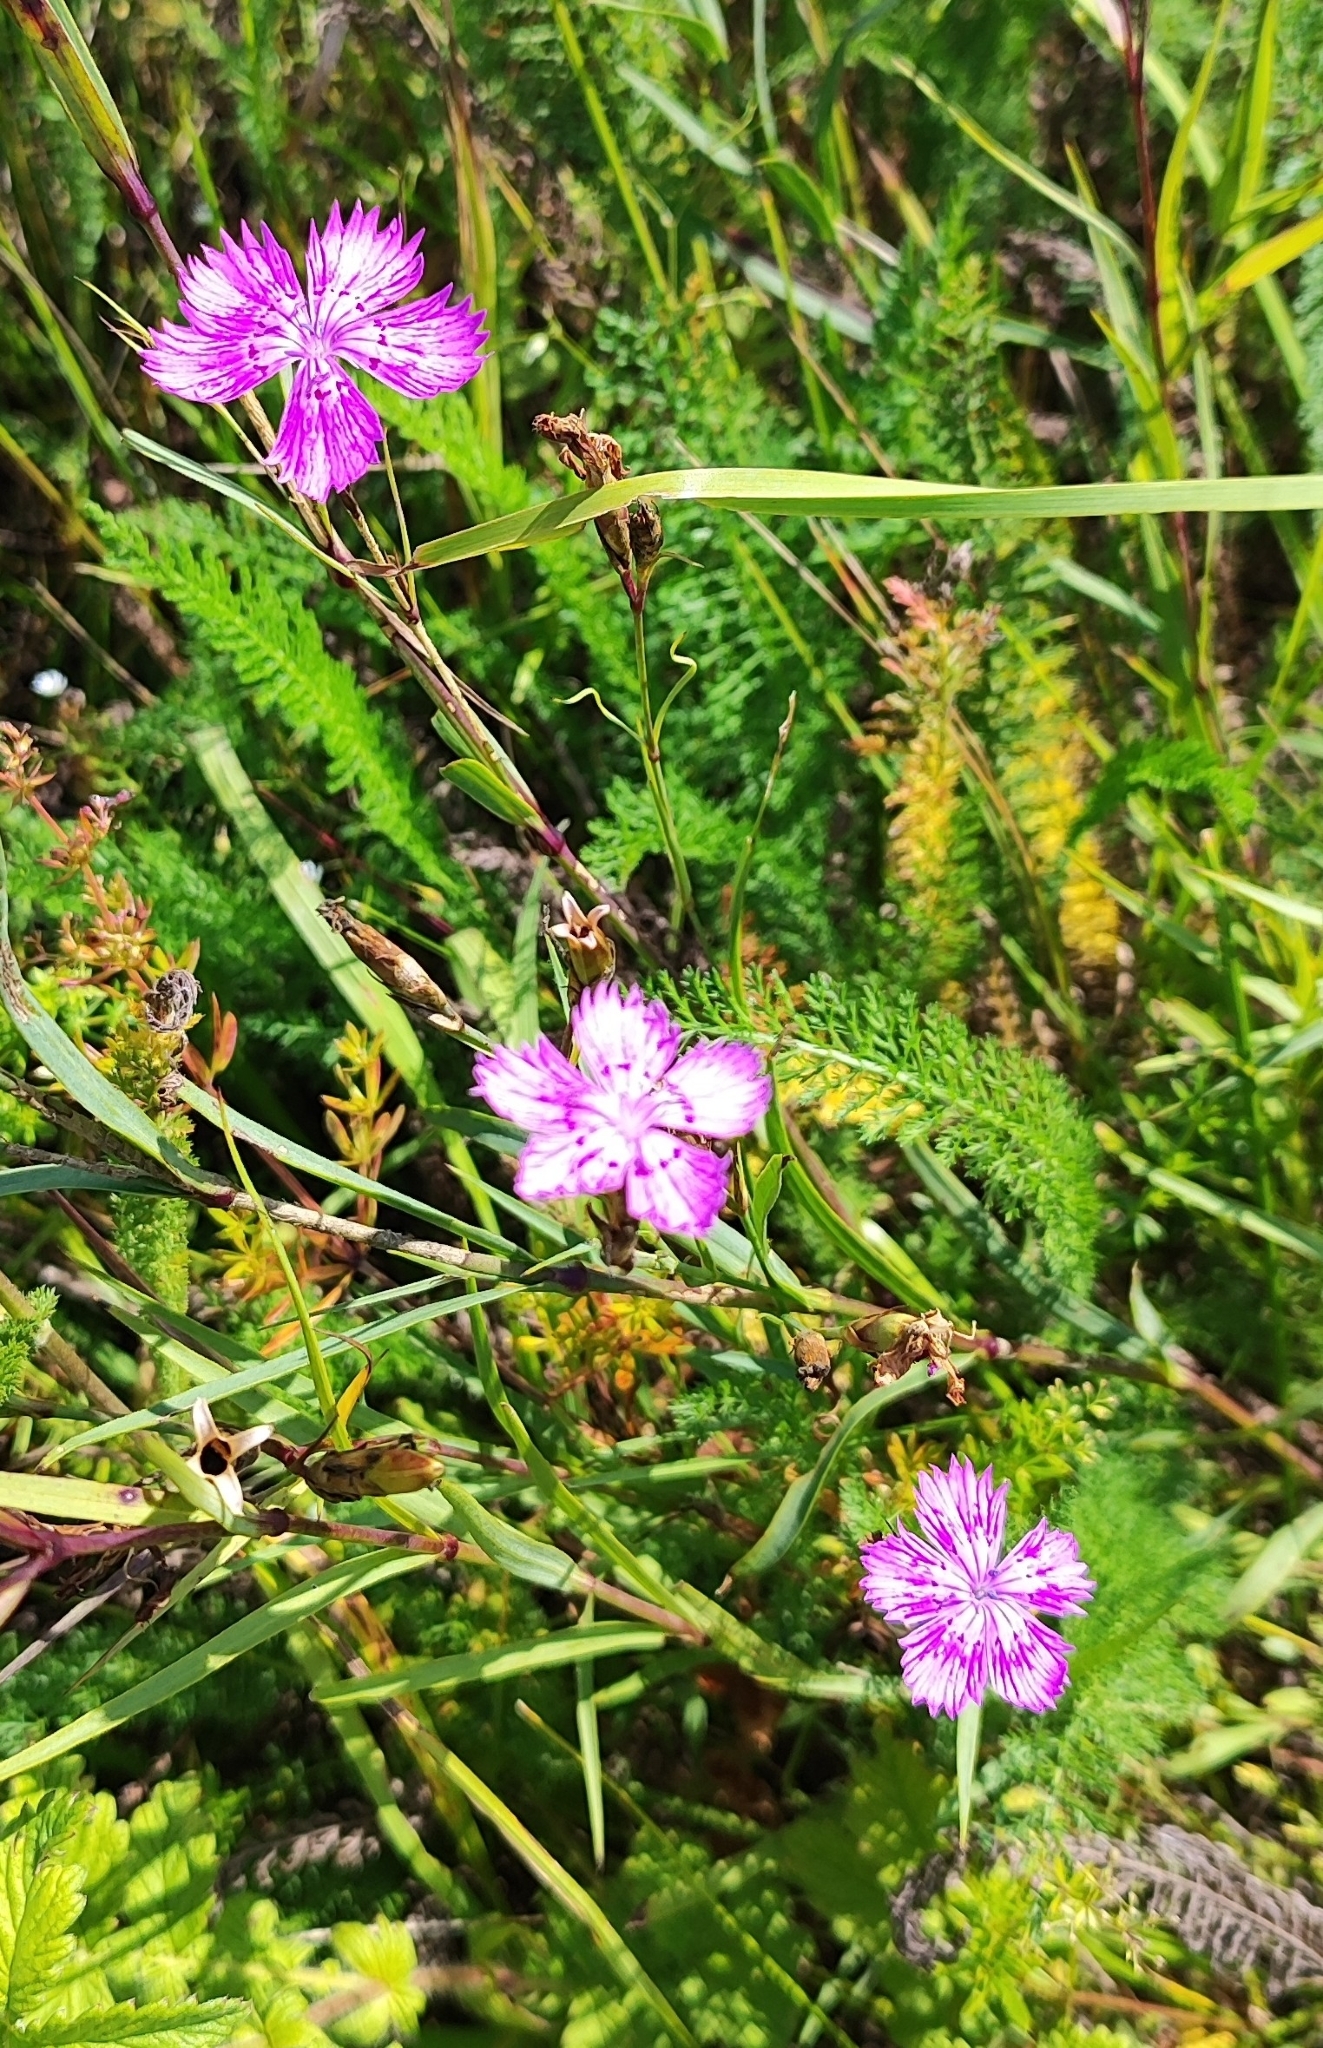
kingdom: Plantae
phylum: Tracheophyta
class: Magnoliopsida
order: Caryophyllales
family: Caryophyllaceae
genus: Dianthus
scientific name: Dianthus chinensis
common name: Rainbow pink
